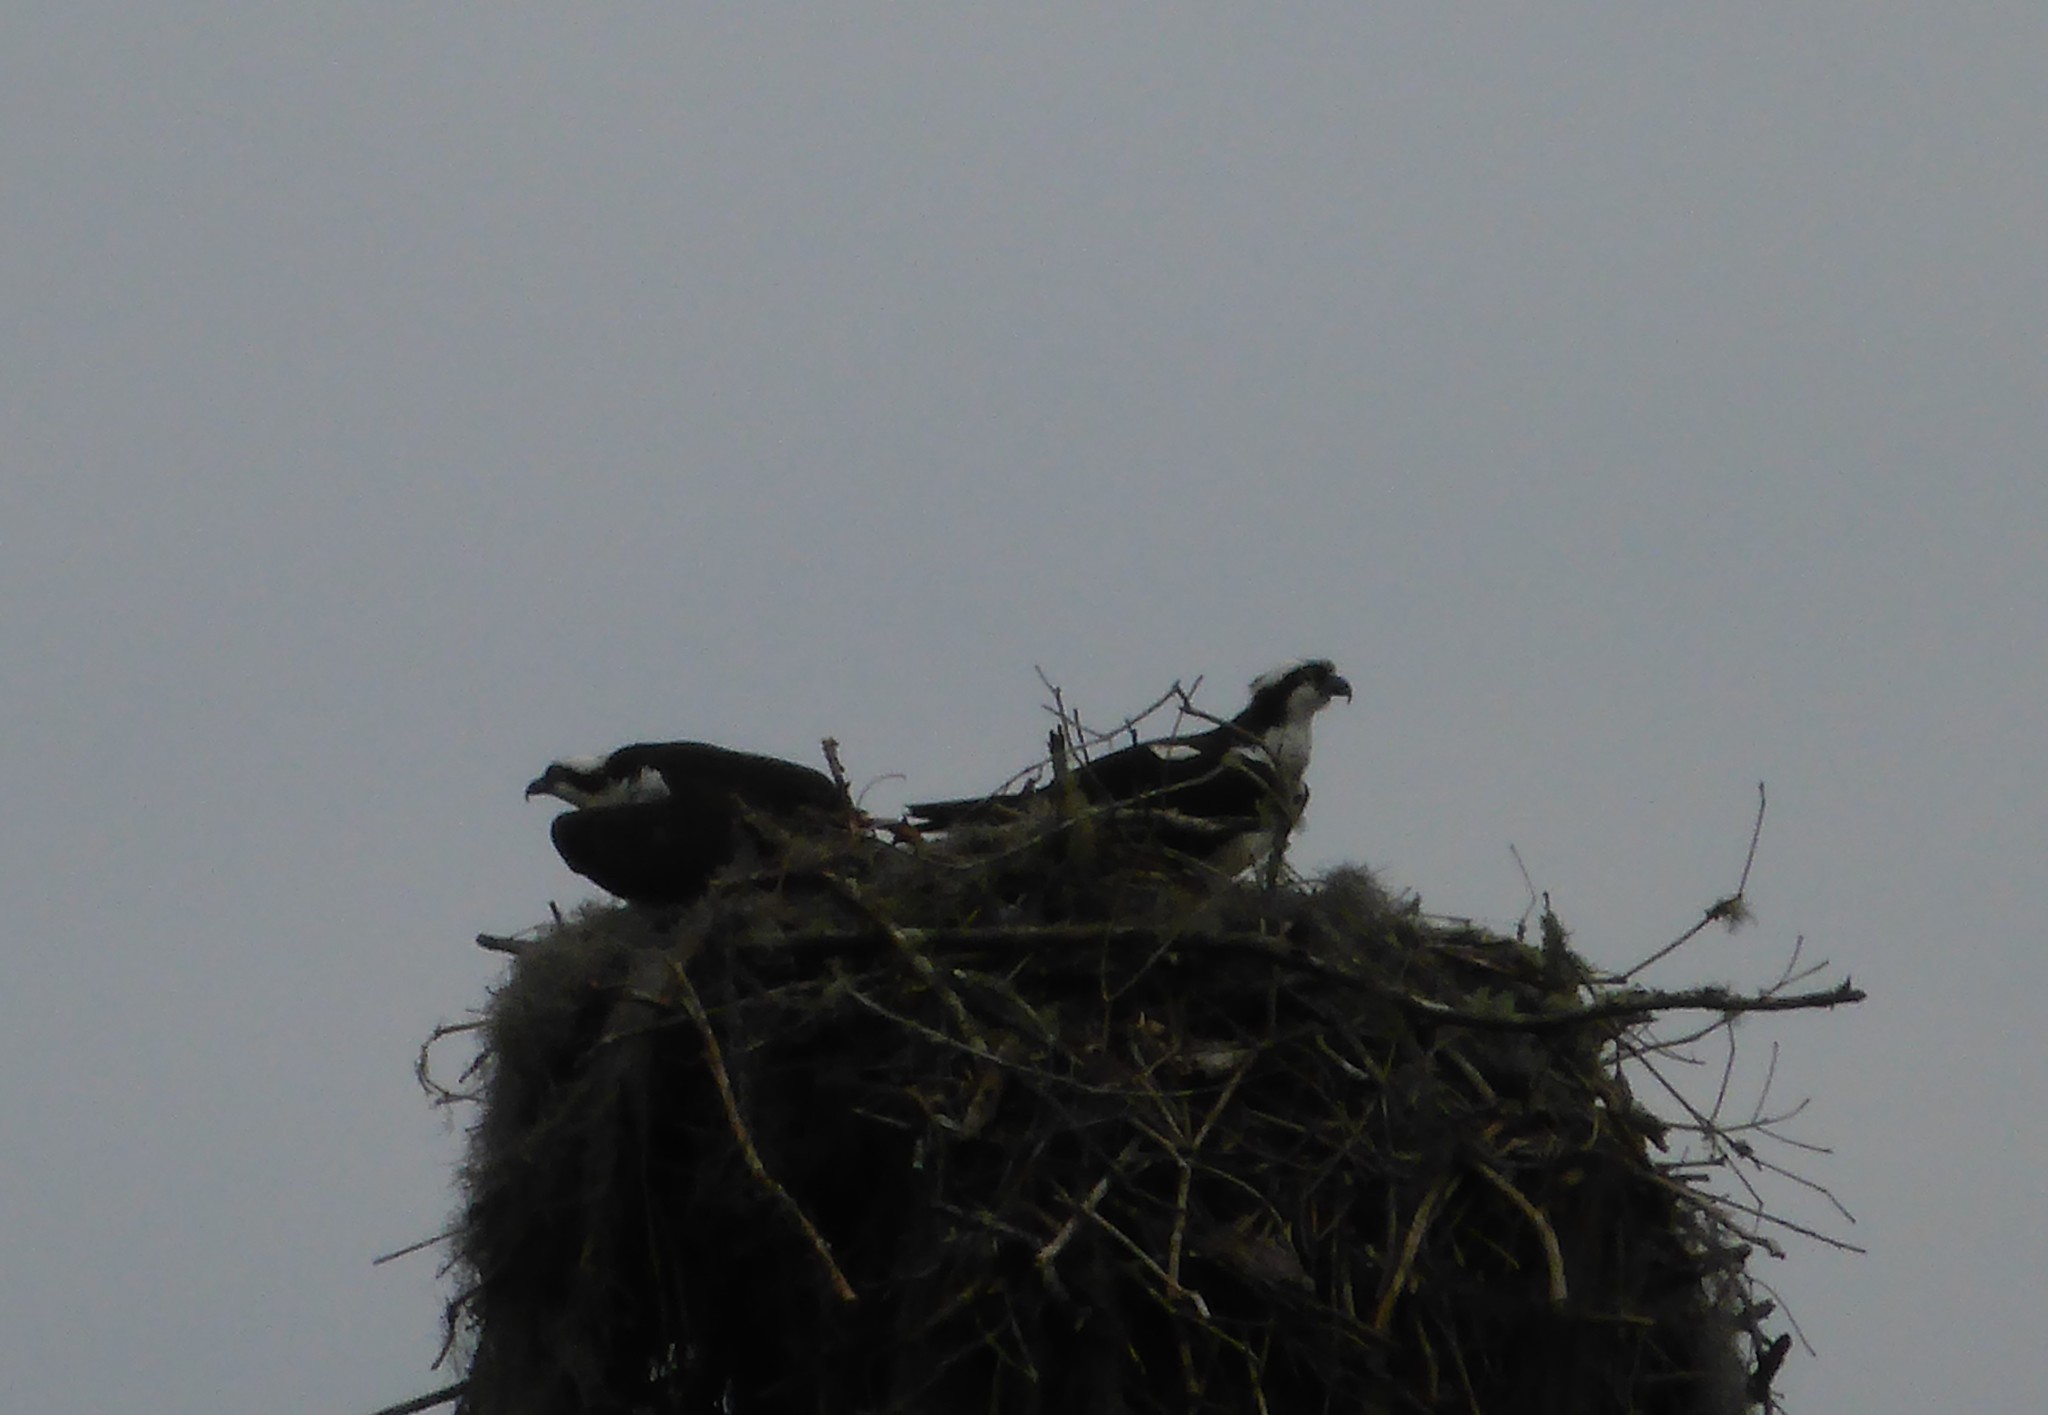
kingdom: Animalia
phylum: Chordata
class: Aves
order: Accipitriformes
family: Pandionidae
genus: Pandion
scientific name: Pandion haliaetus
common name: Osprey
